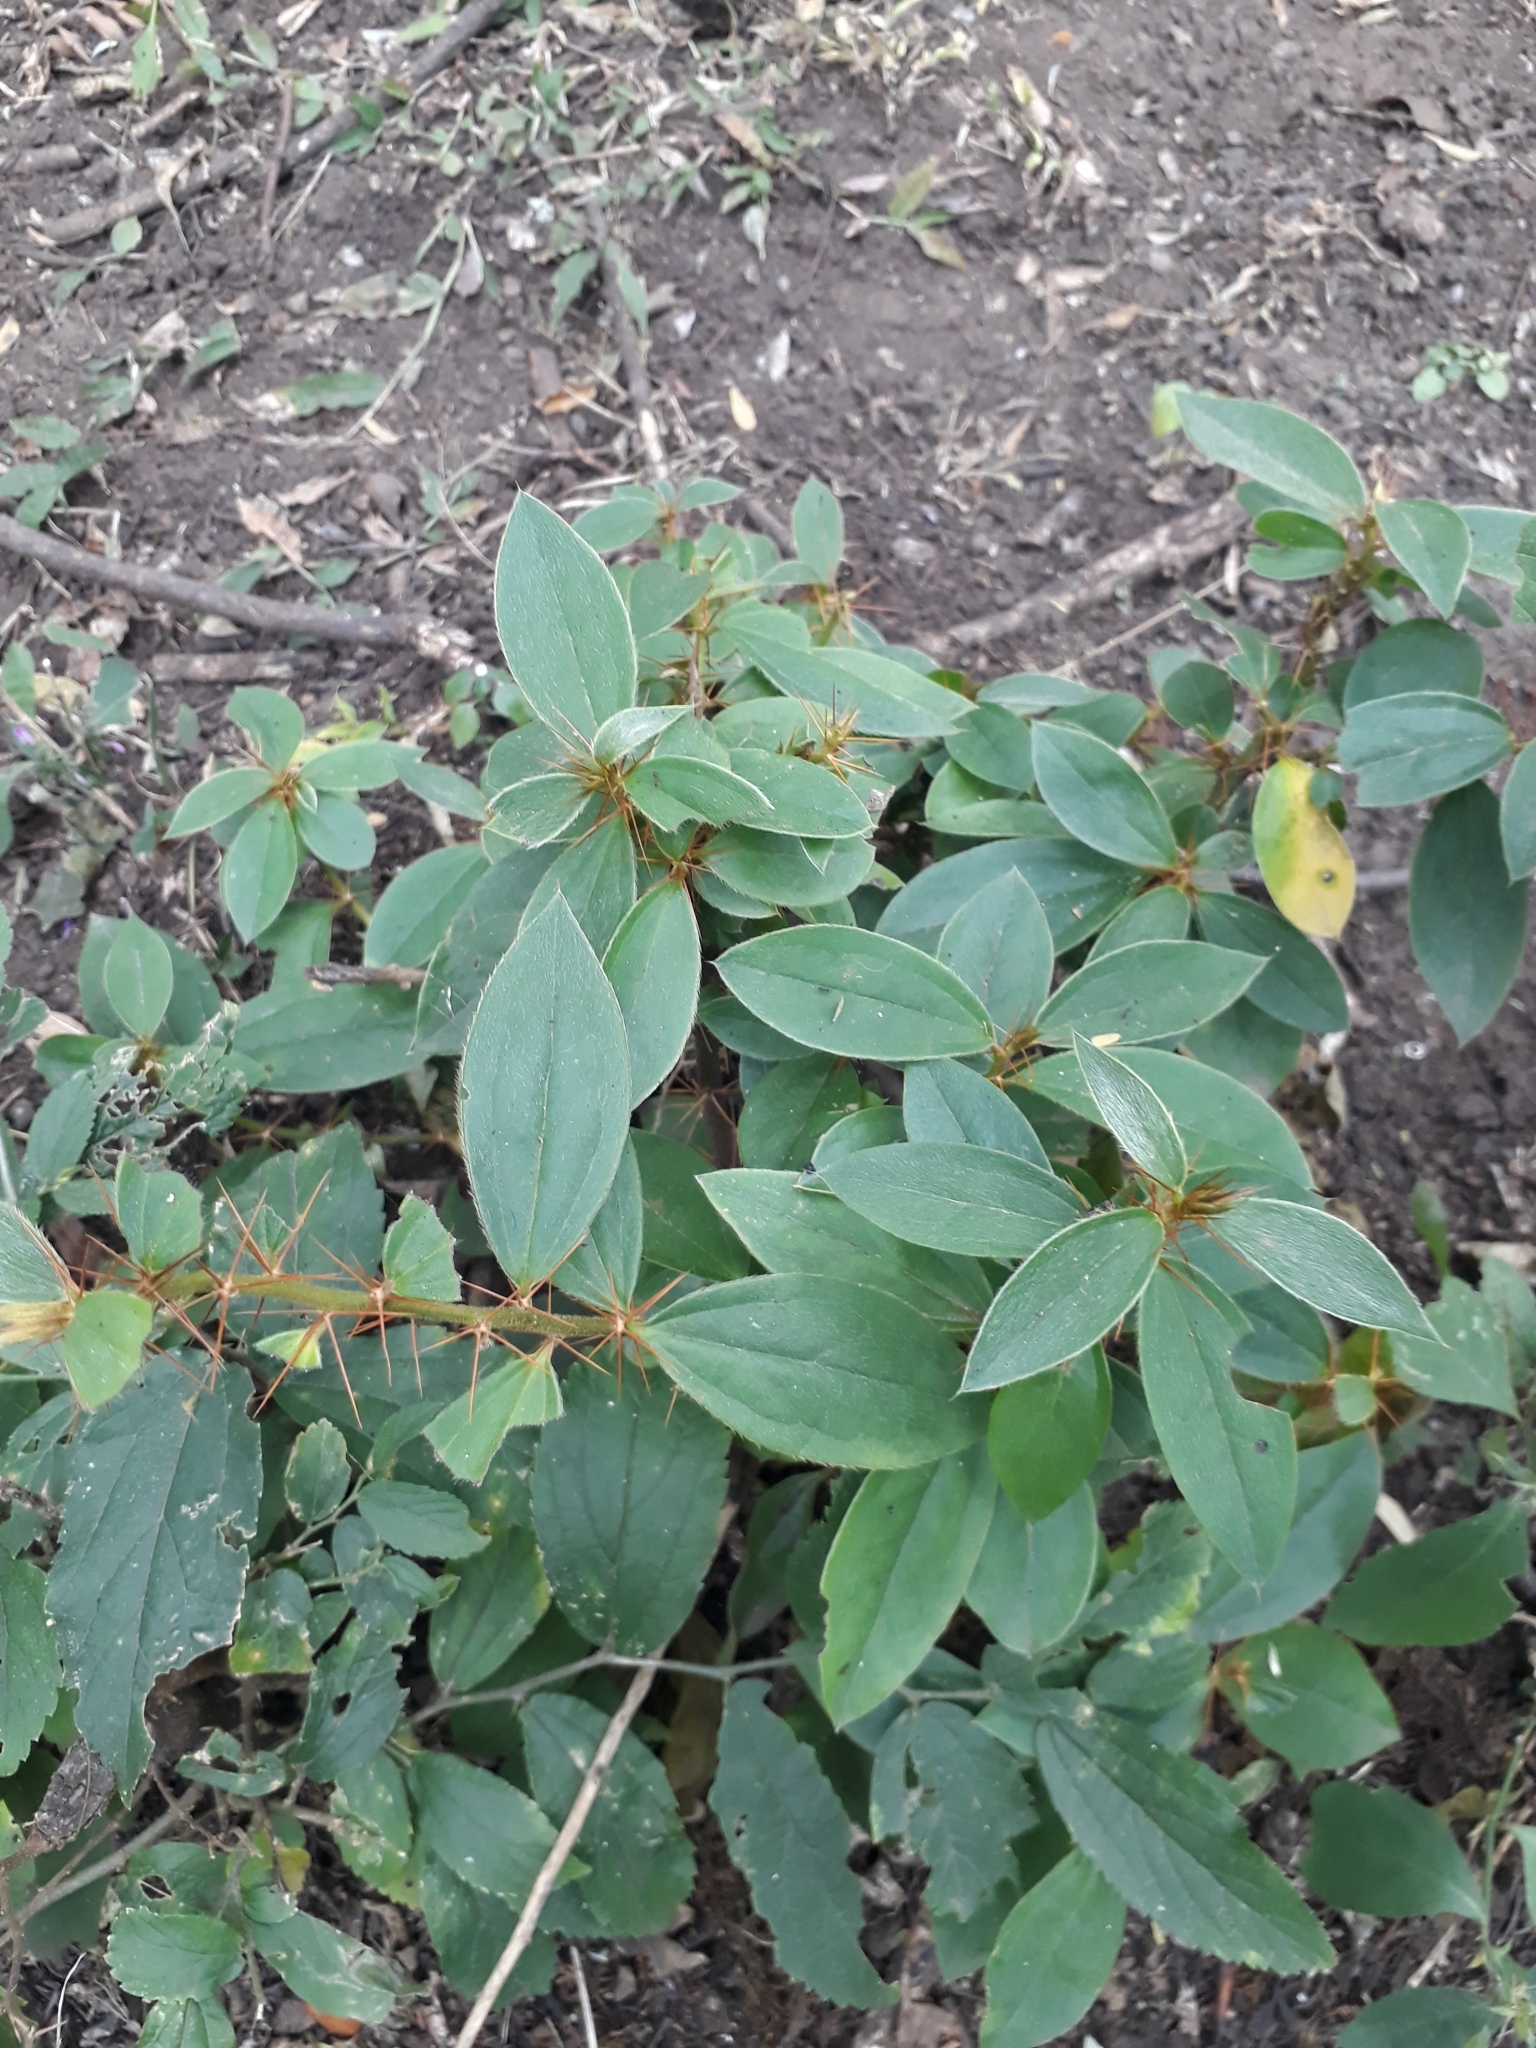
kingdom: Plantae
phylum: Tracheophyta
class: Magnoliopsida
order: Asterales
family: Asteraceae
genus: Barnadesia
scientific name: Barnadesia odorata
